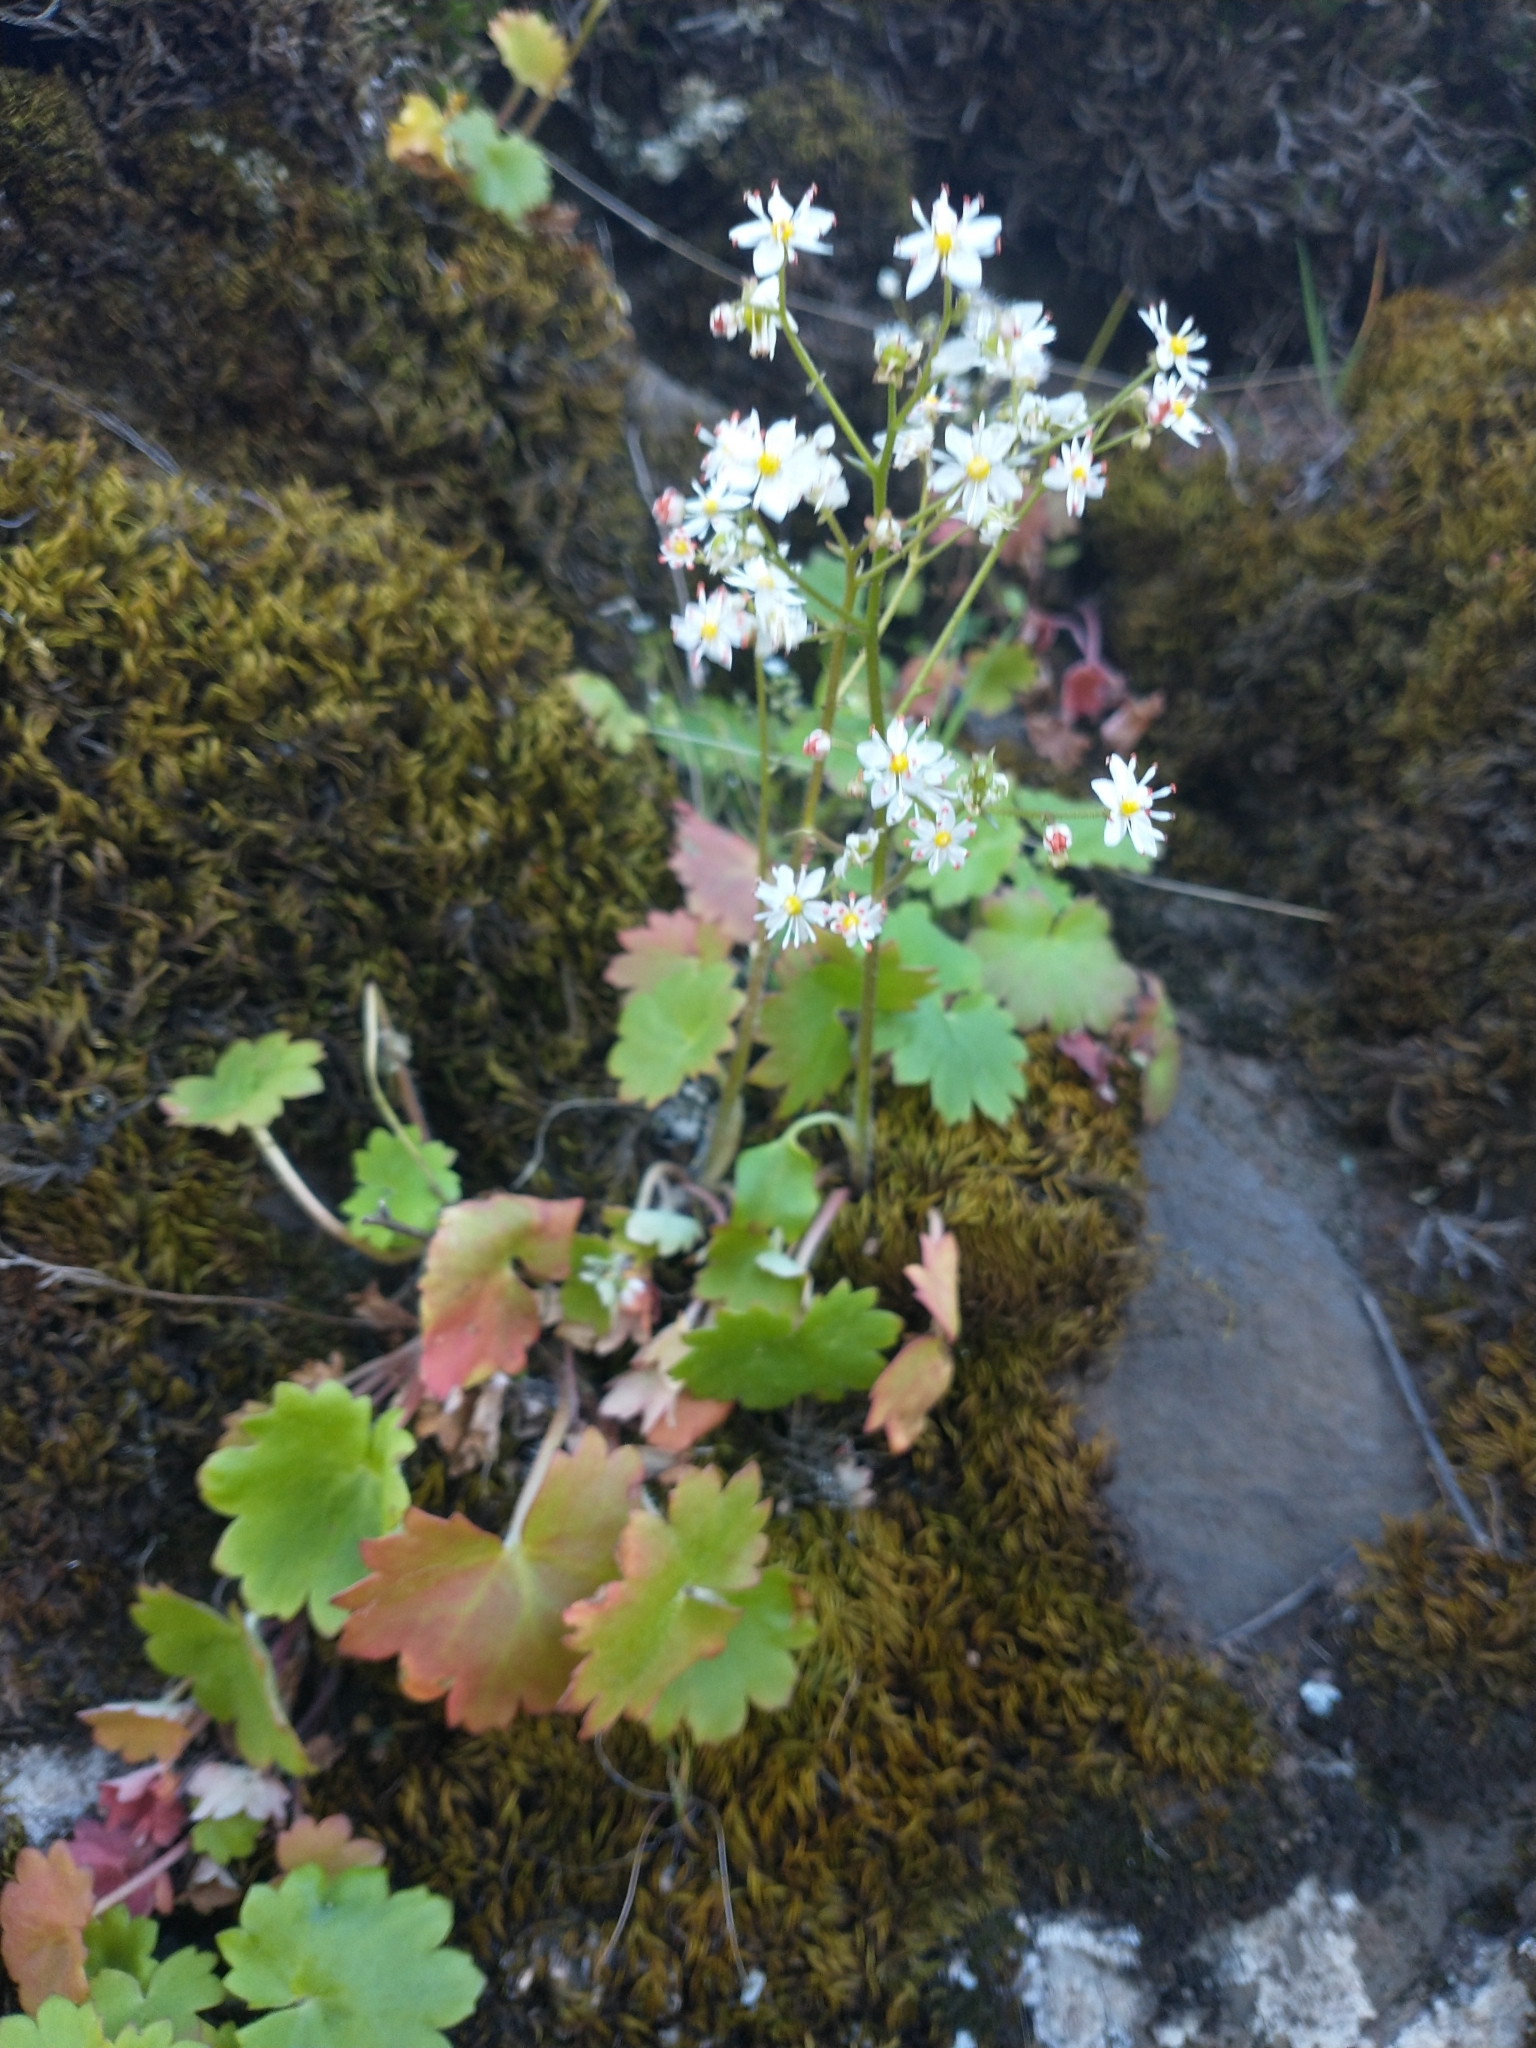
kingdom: Plantae
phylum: Tracheophyta
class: Magnoliopsida
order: Saxifragales
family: Saxifragaceae
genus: Micranthes
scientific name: Micranthes mertensiana
